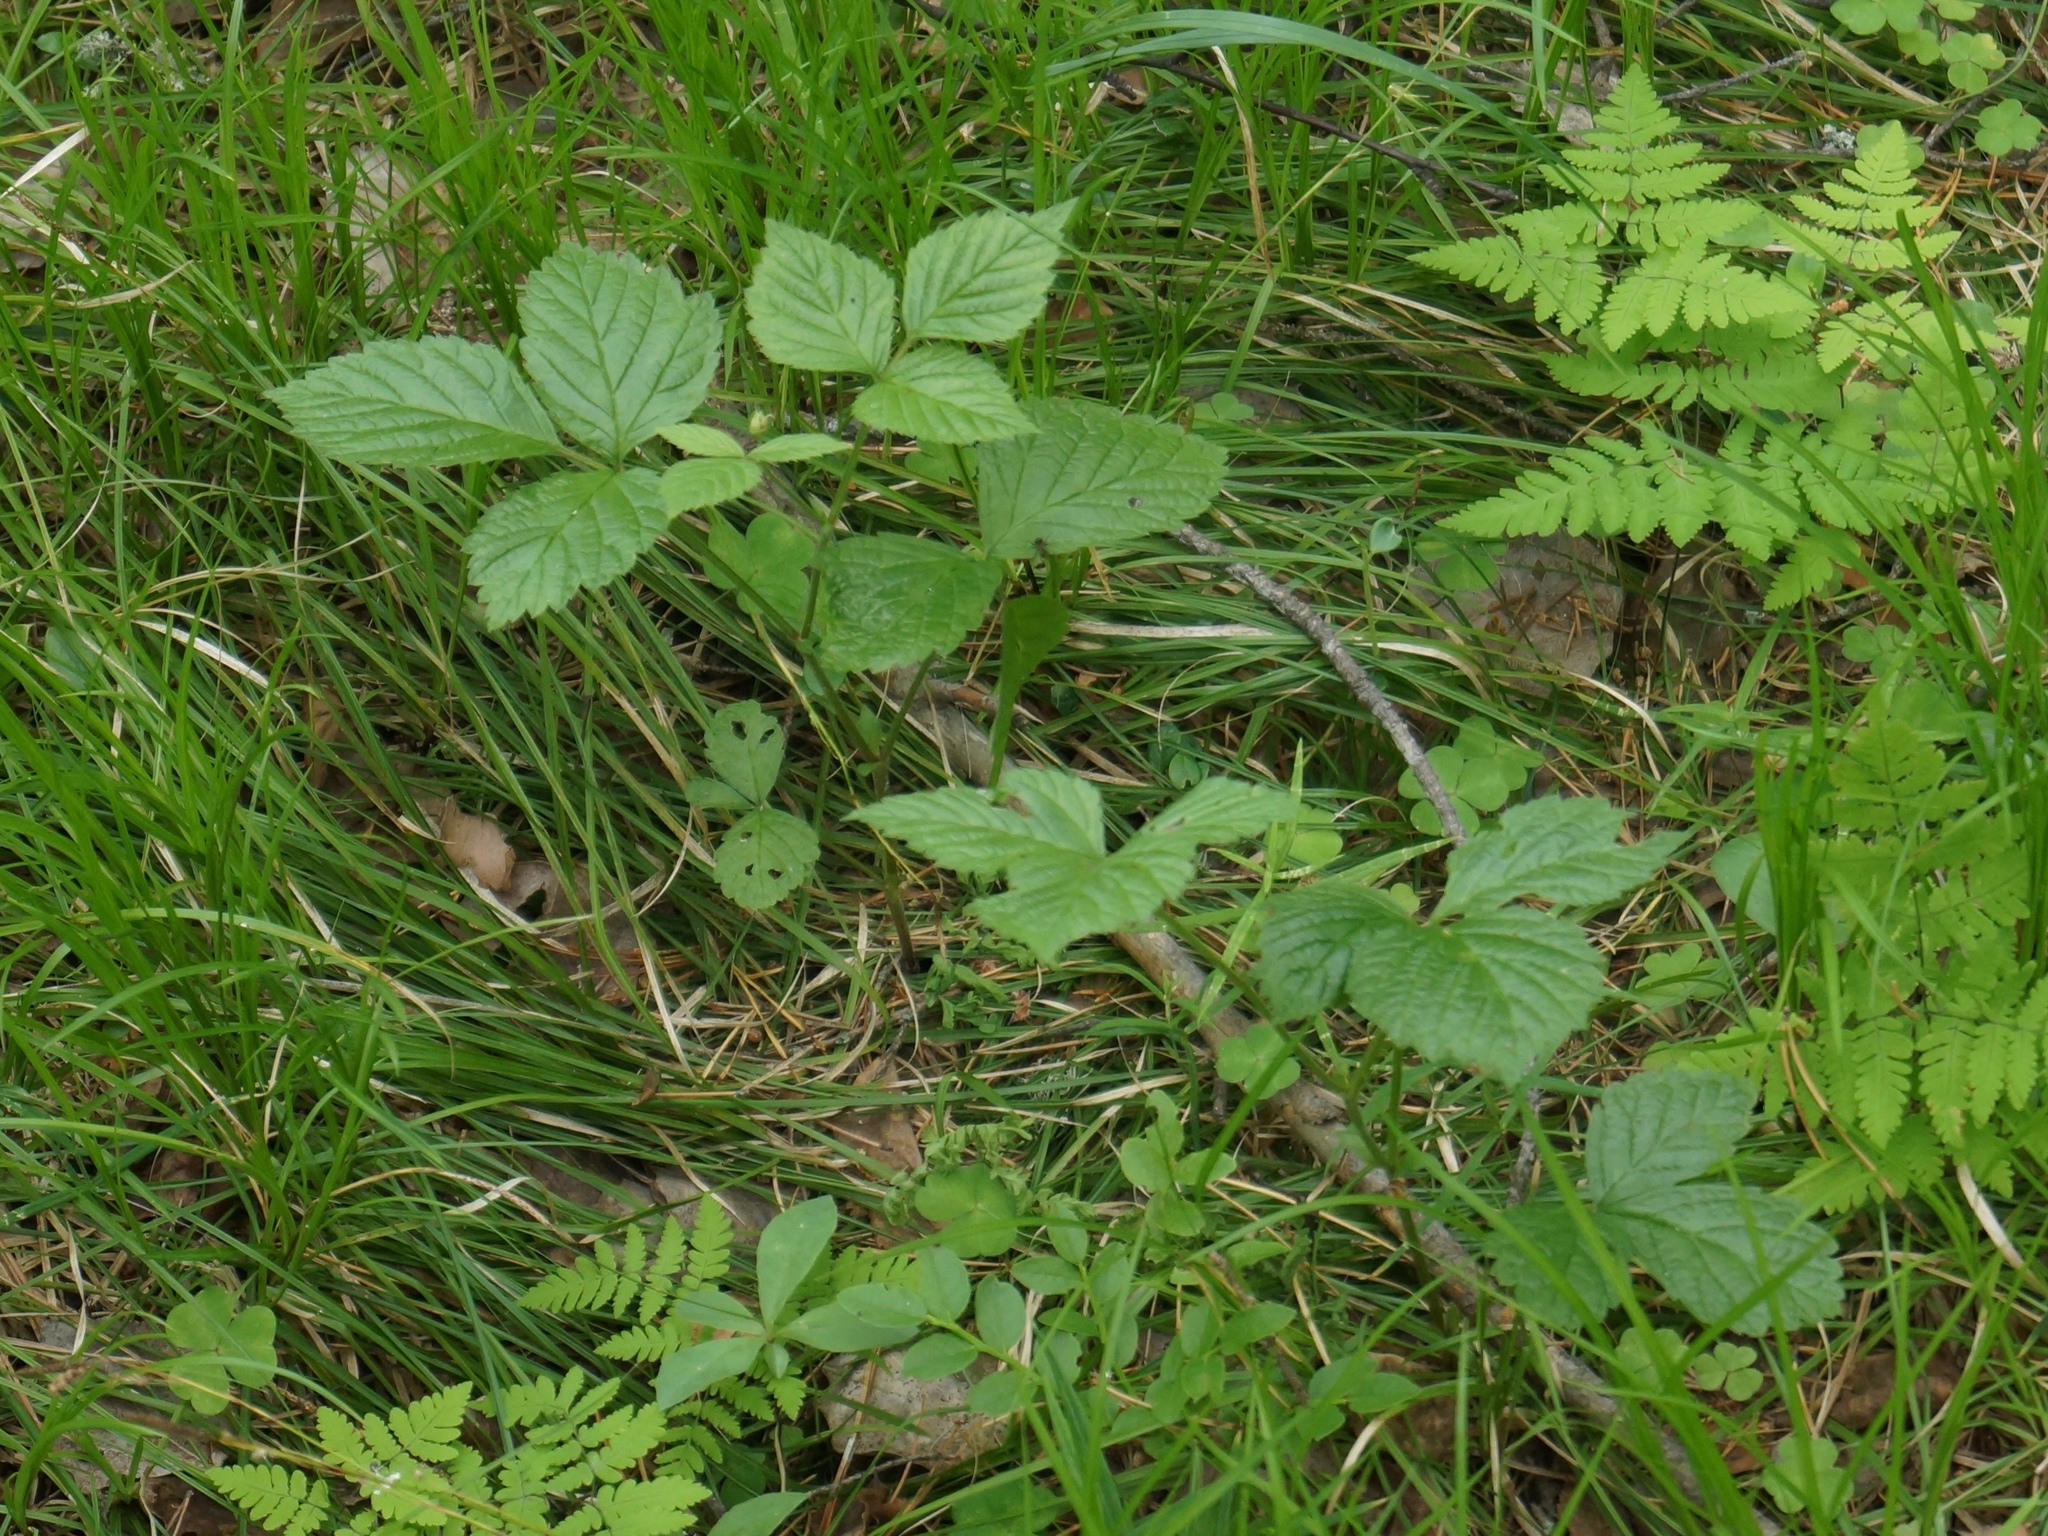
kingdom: Plantae
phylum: Tracheophyta
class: Magnoliopsida
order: Rosales
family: Rosaceae
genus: Rubus
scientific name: Rubus saxatilis
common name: Stone bramble
